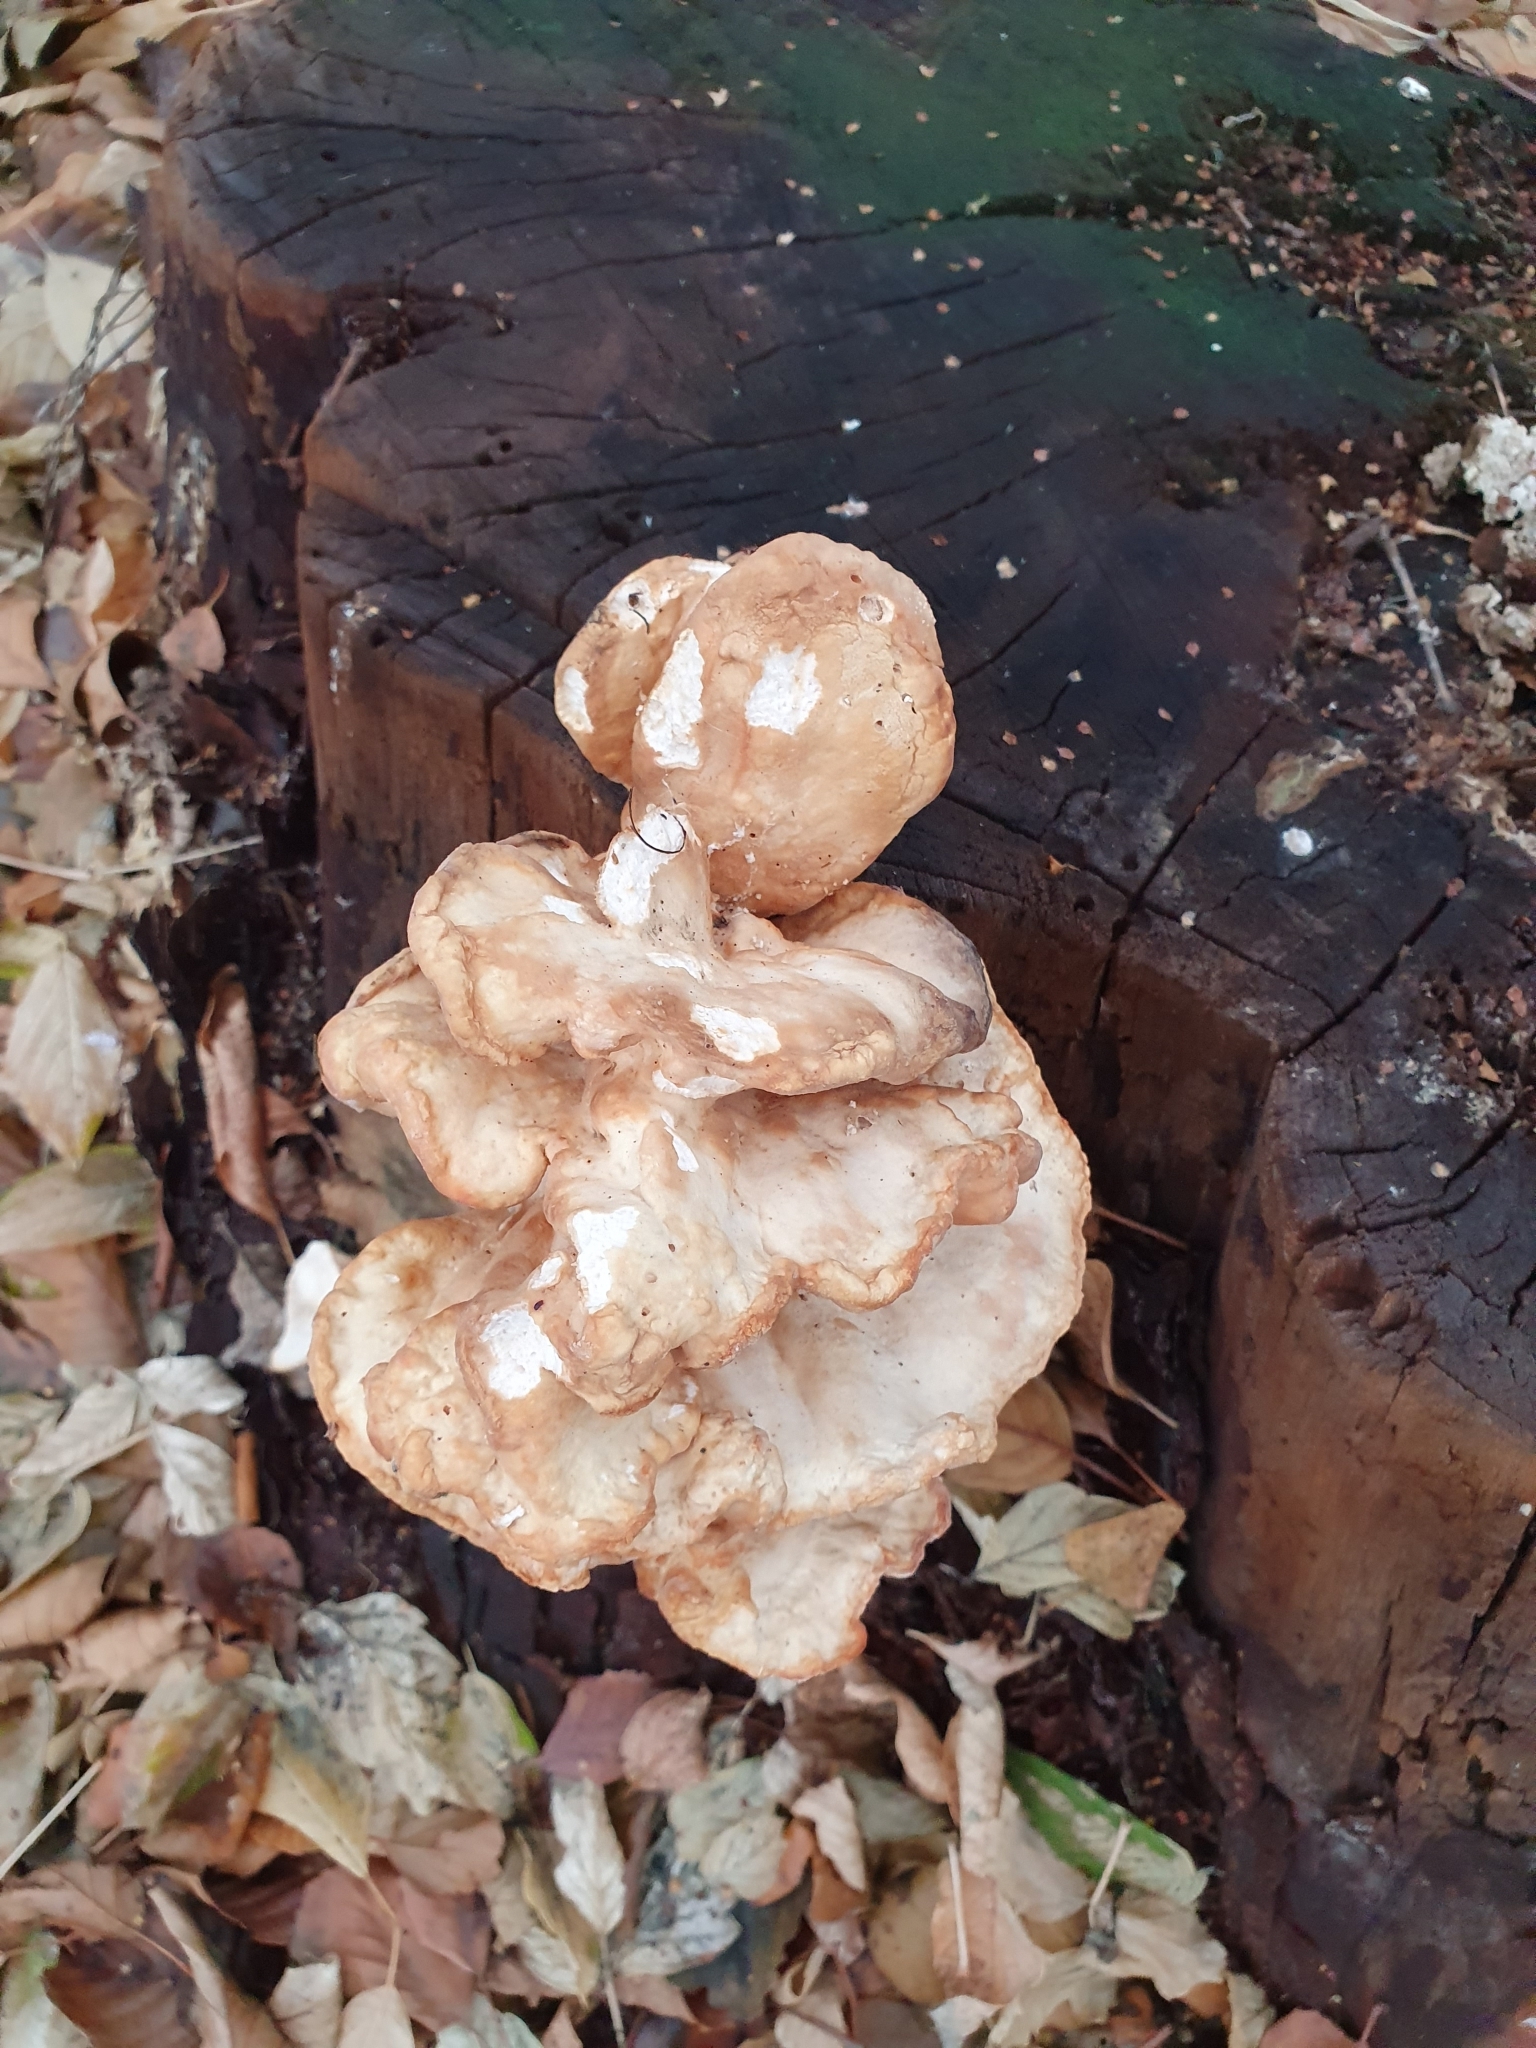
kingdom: Fungi
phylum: Basidiomycota
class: Agaricomycetes
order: Polyporales
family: Laetiporaceae
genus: Laetiporus
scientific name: Laetiporus sulphureus
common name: Chicken of the woods
